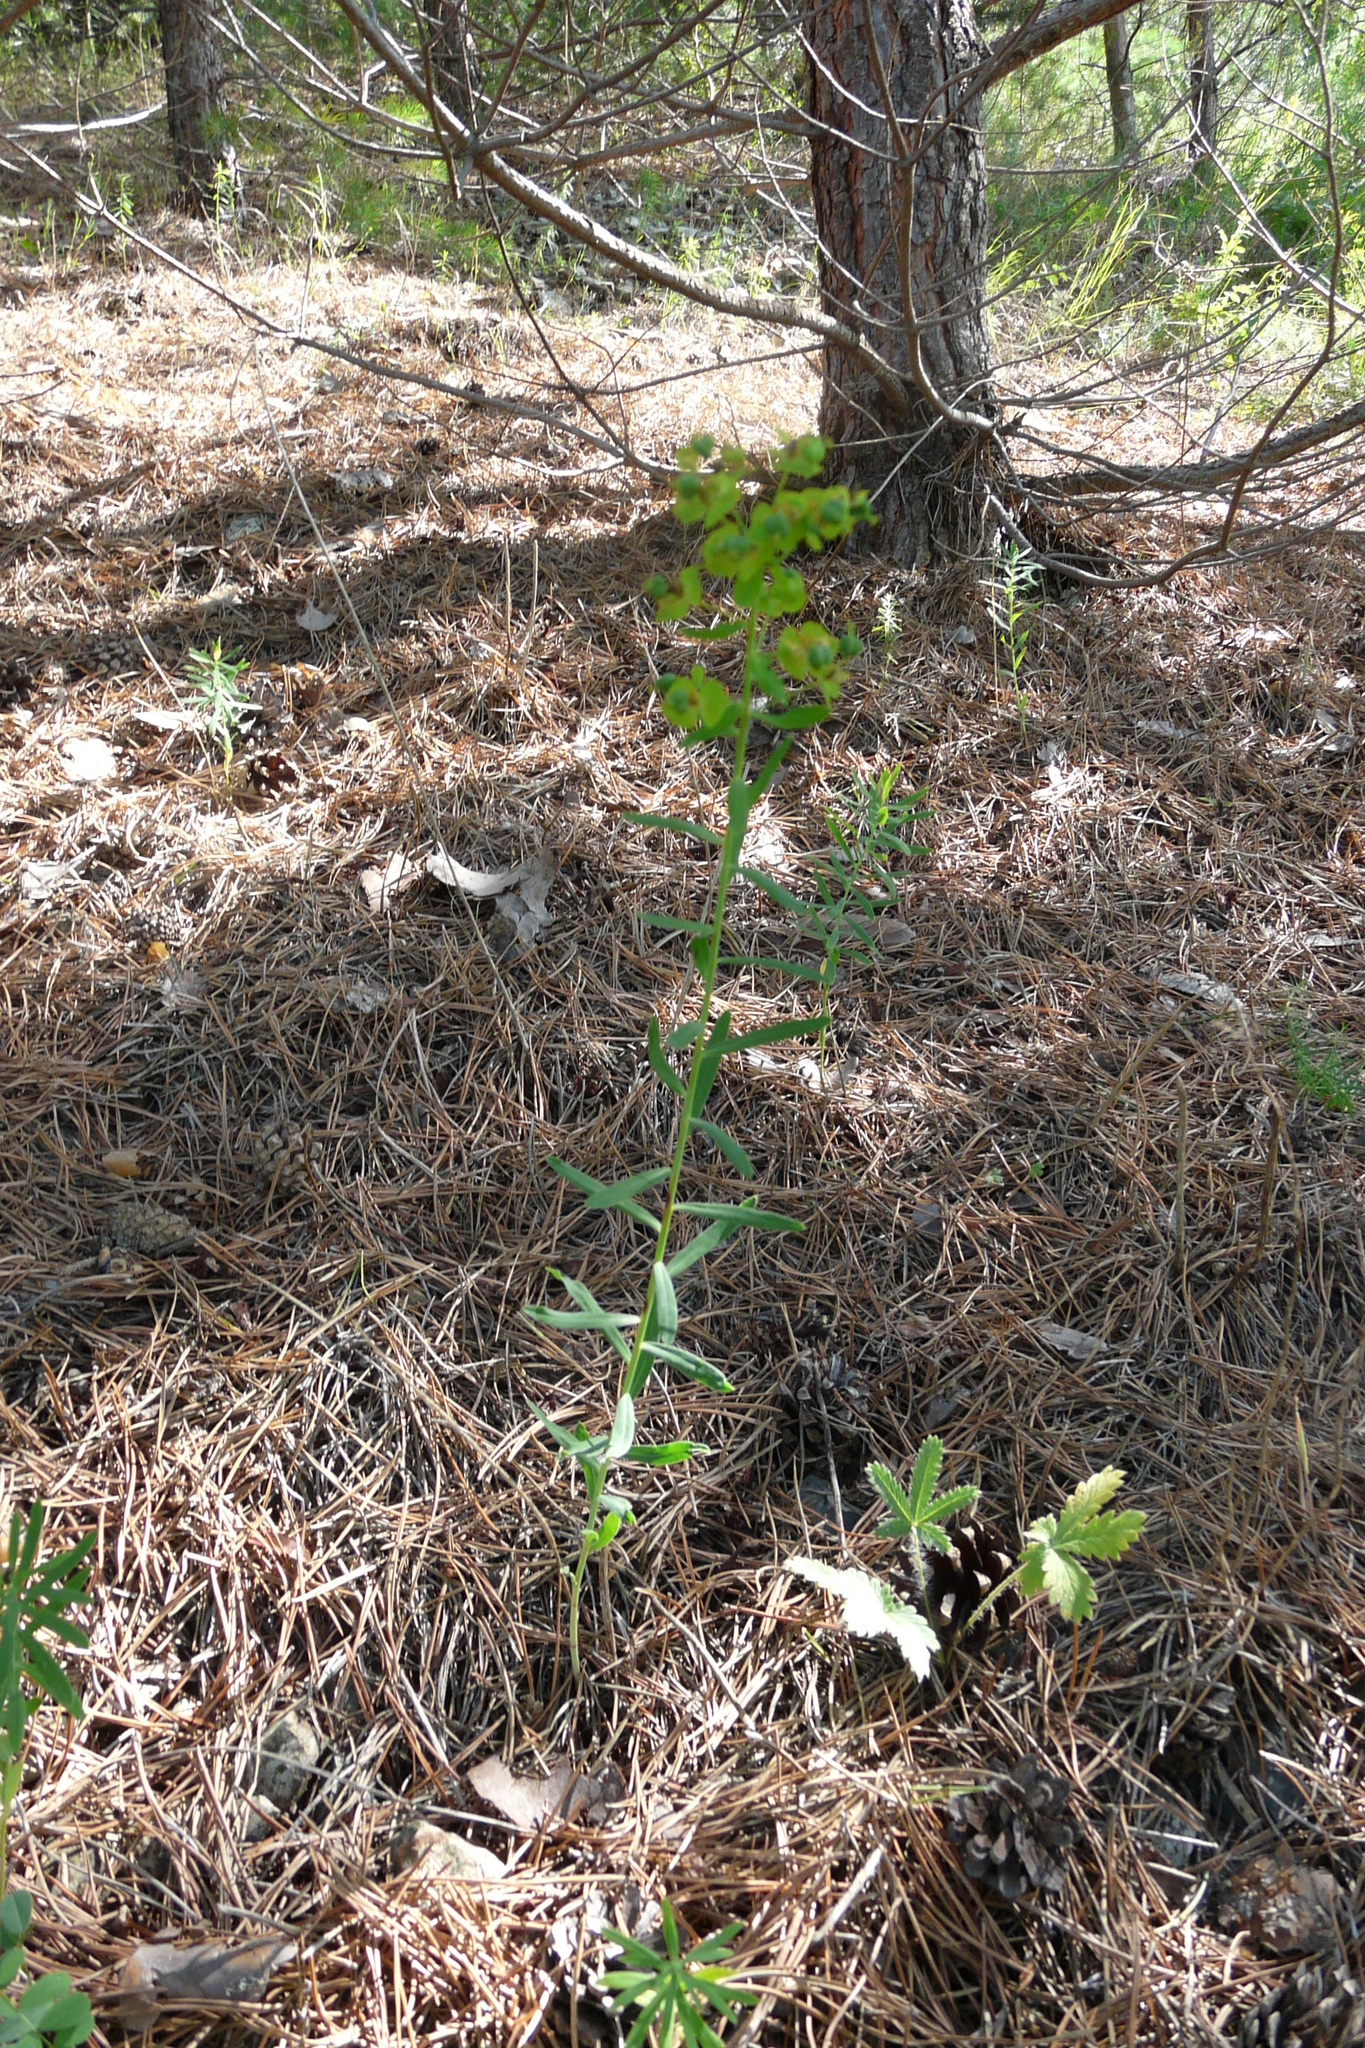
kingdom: Plantae
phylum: Tracheophyta
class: Magnoliopsida
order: Malpighiales
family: Euphorbiaceae
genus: Euphorbia
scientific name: Euphorbia virgata
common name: Leafy spurge
